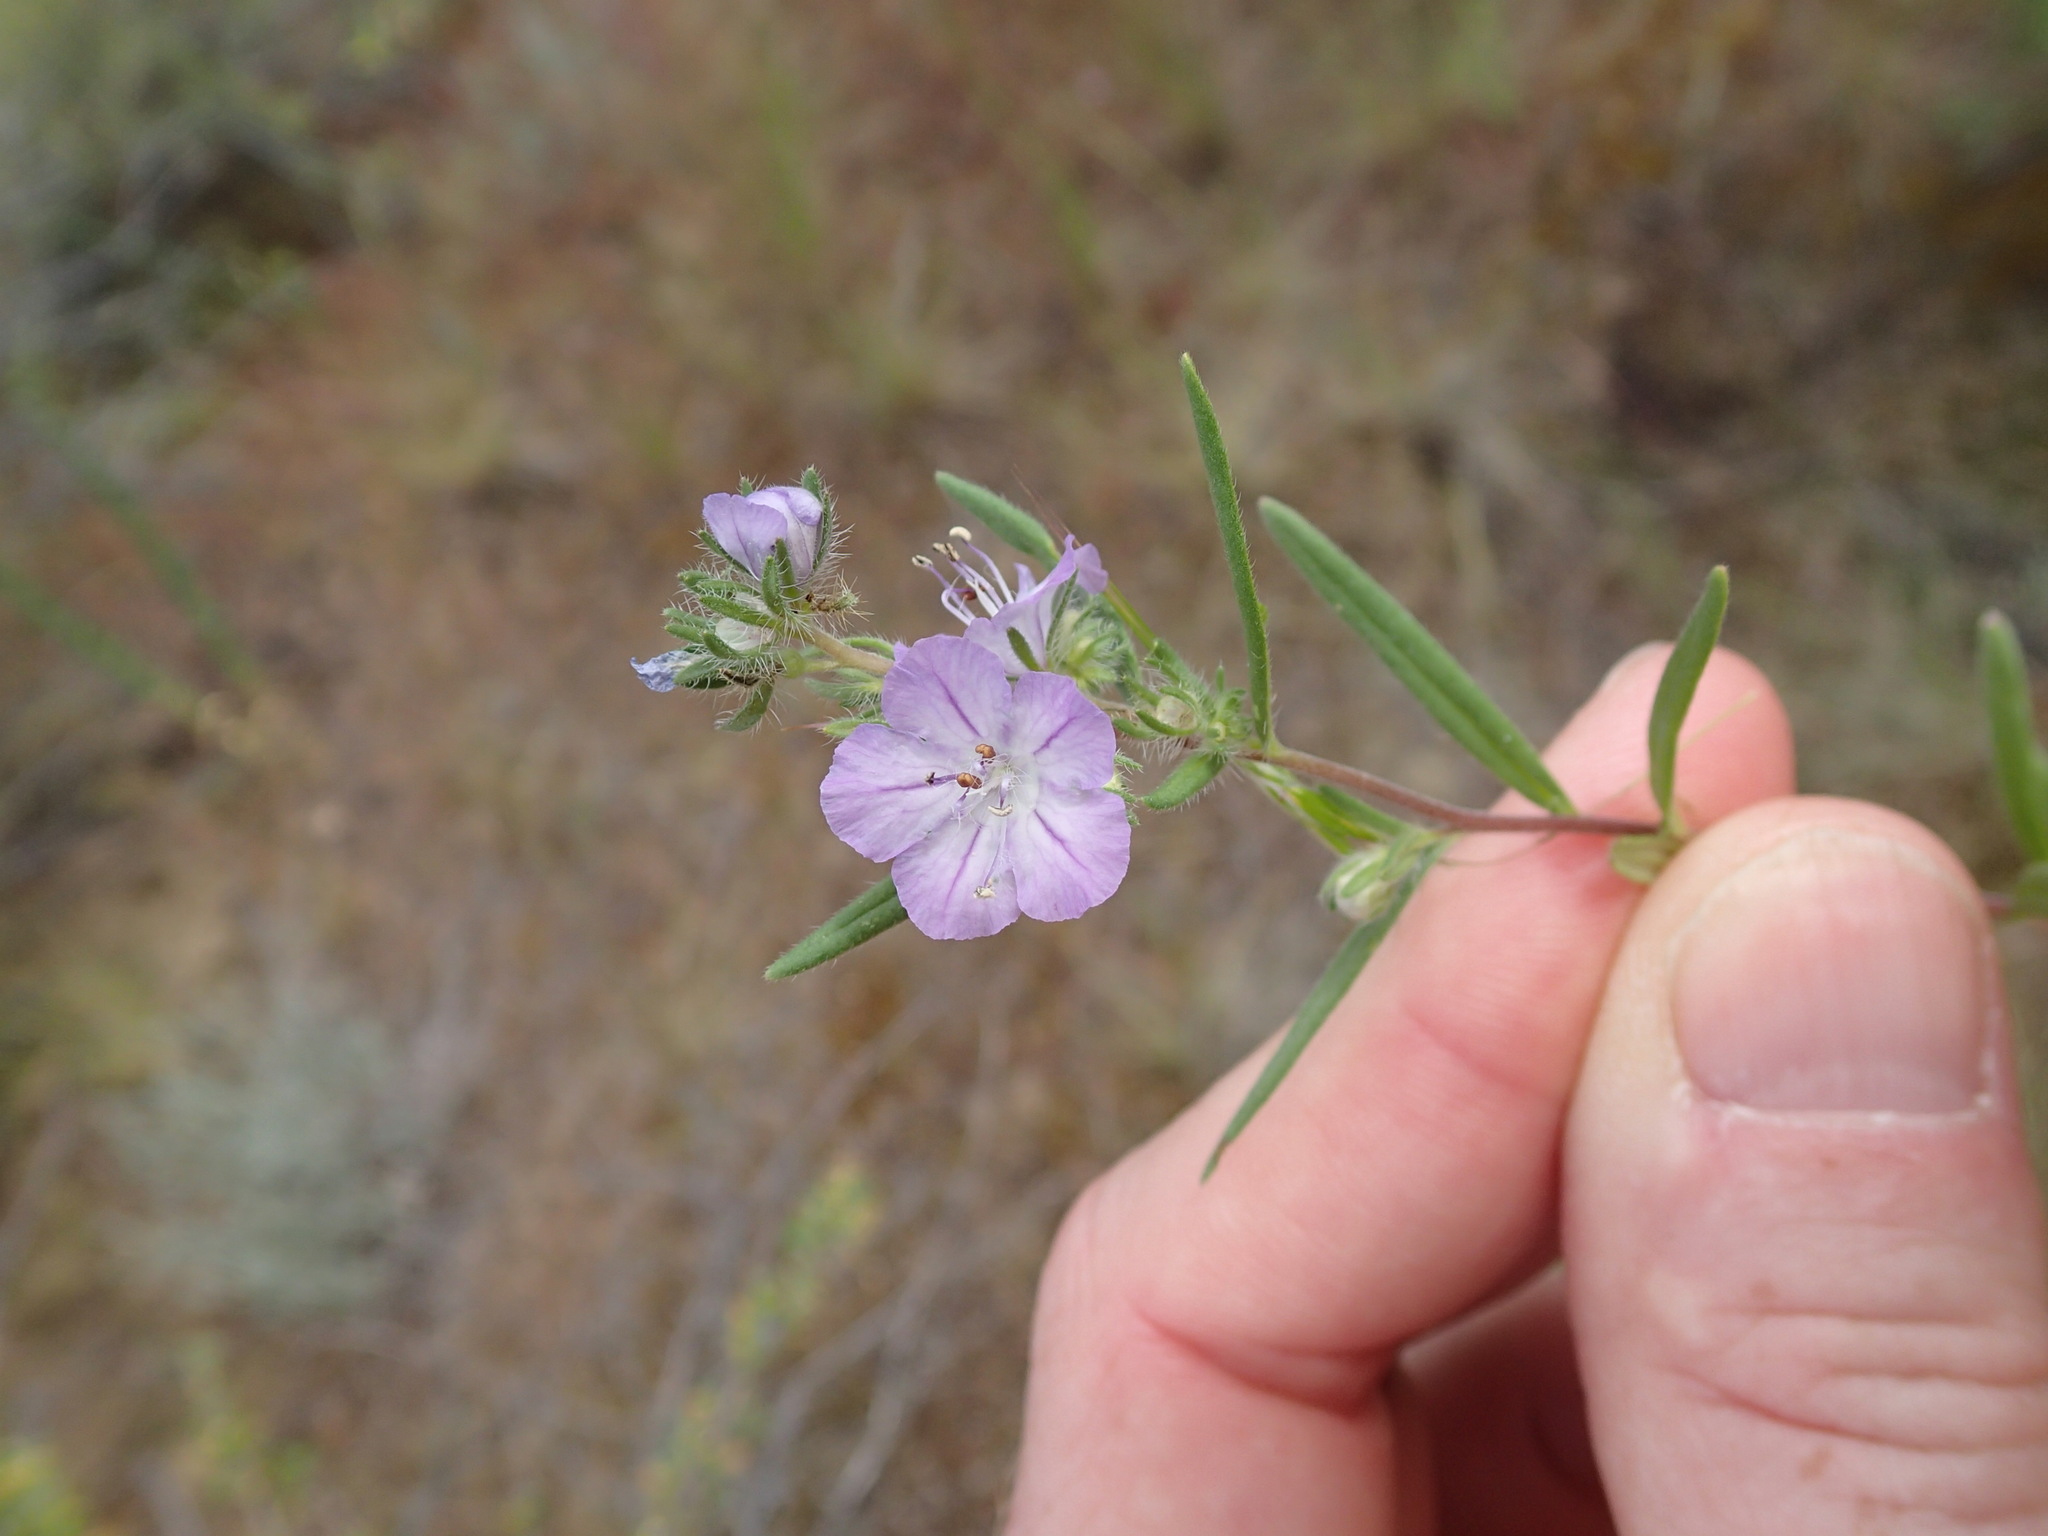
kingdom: Plantae
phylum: Tracheophyta
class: Magnoliopsida
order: Boraginales
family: Hydrophyllaceae
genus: Phacelia
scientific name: Phacelia linearis
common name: Linear-leaved phacelia
